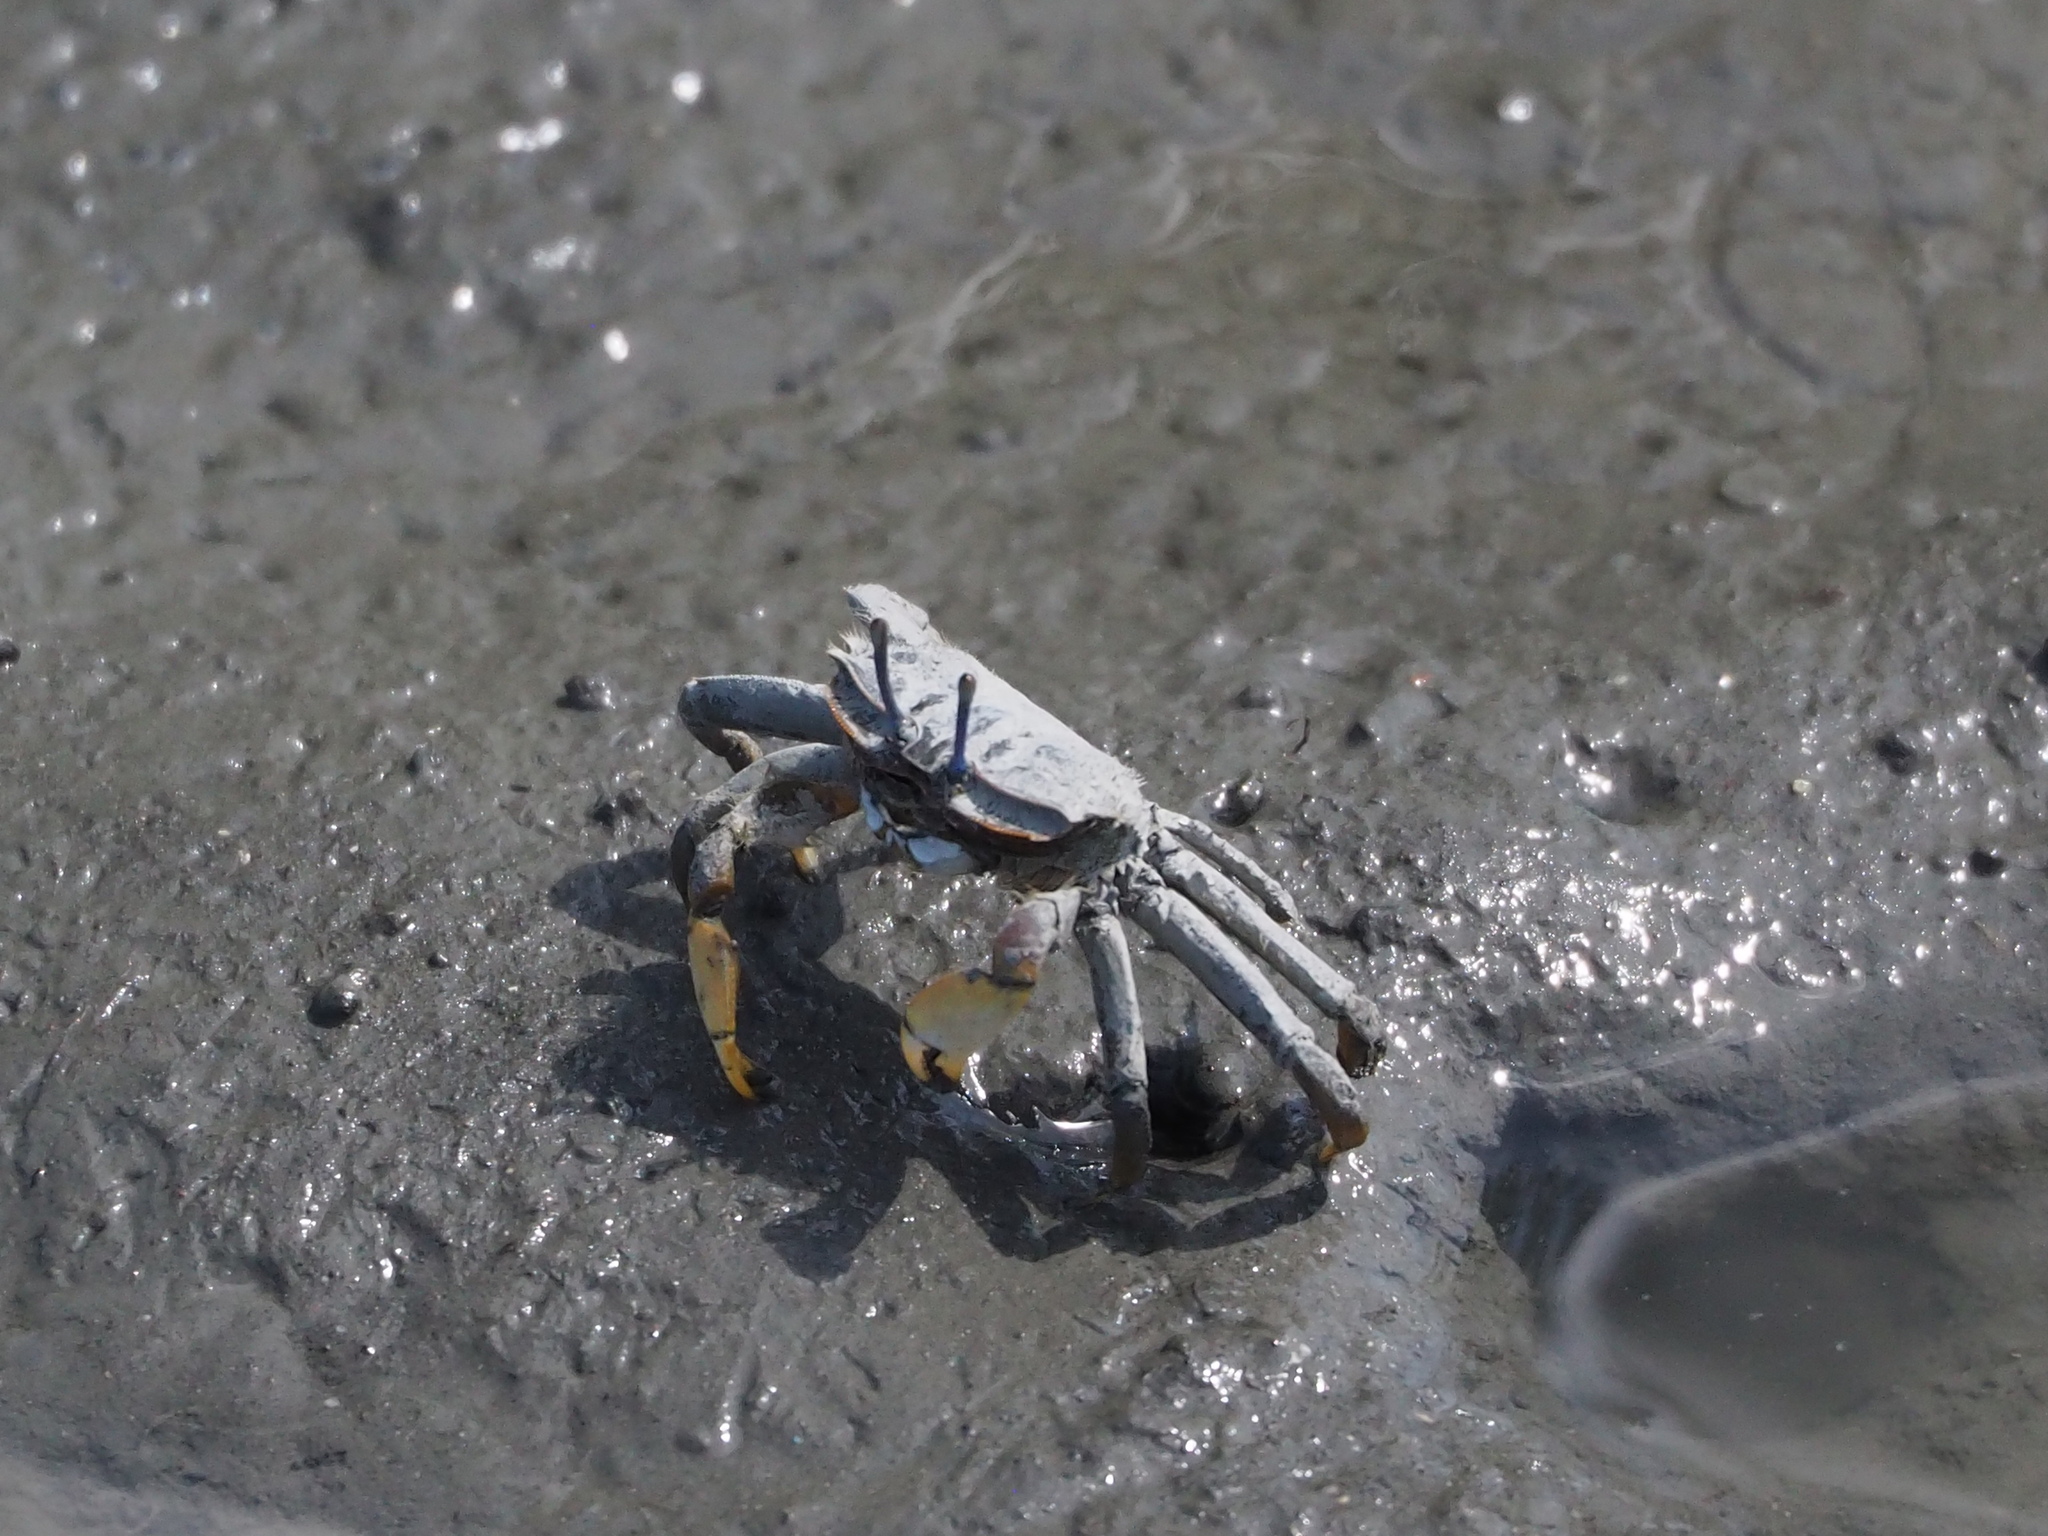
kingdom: Animalia
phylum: Arthropoda
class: Malacostraca
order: Decapoda
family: Macrophthalmidae
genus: Macrophthalmus
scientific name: Macrophthalmus banzai
